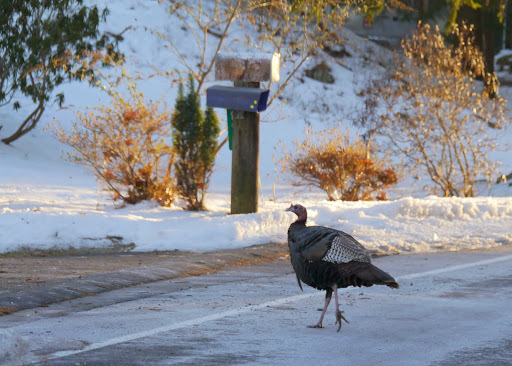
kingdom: Animalia
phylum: Chordata
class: Aves
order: Galliformes
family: Phasianidae
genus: Meleagris
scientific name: Meleagris gallopavo
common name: Wild turkey
